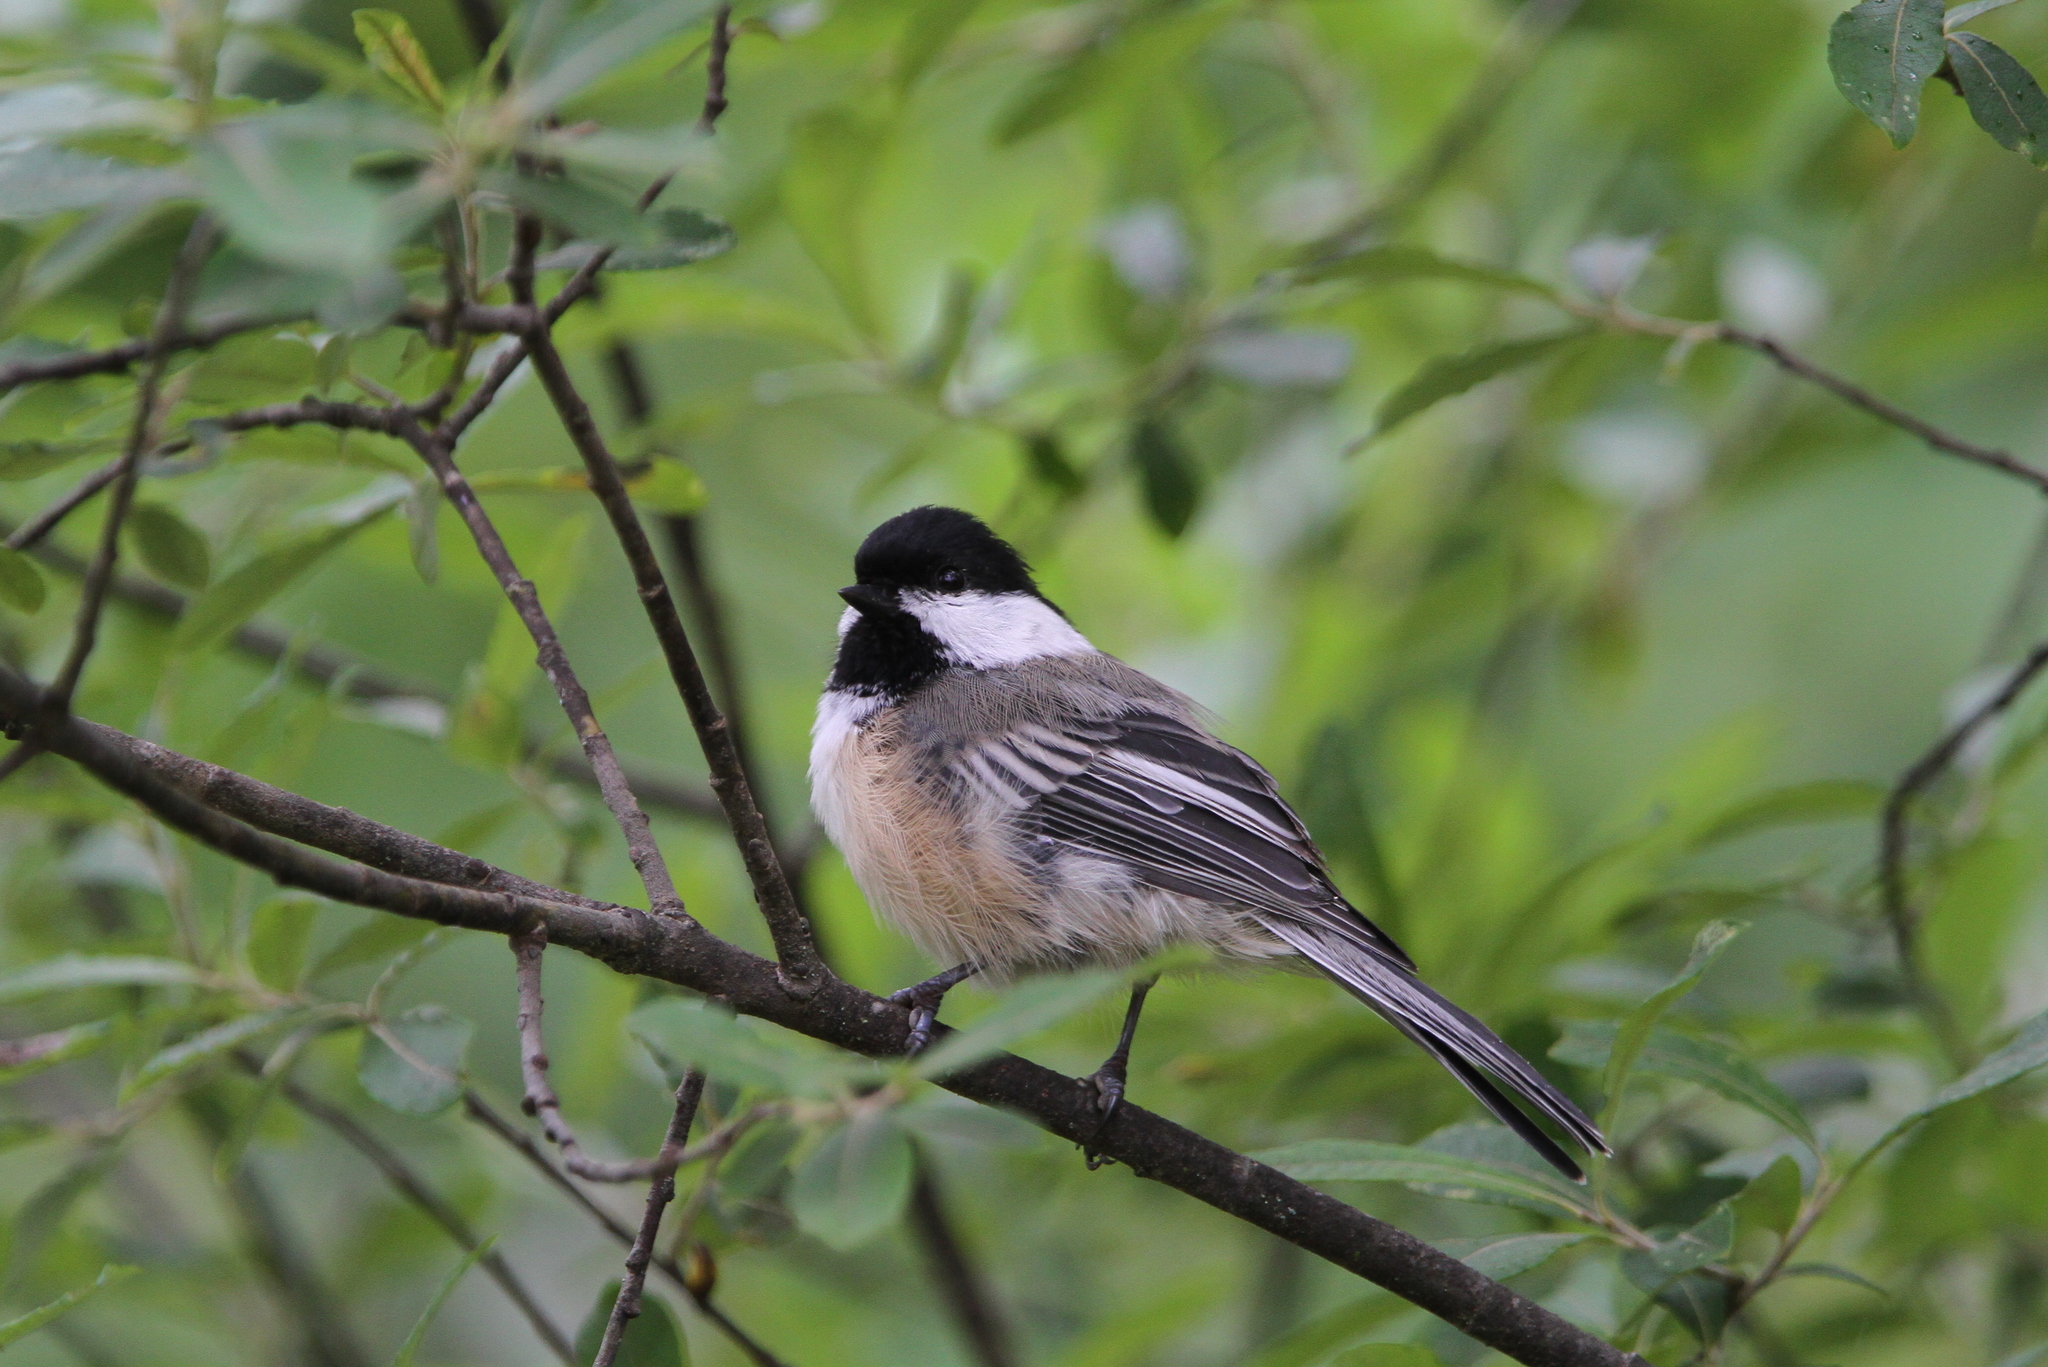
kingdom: Animalia
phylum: Chordata
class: Aves
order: Passeriformes
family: Paridae
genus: Poecile
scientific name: Poecile atricapillus
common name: Black-capped chickadee
